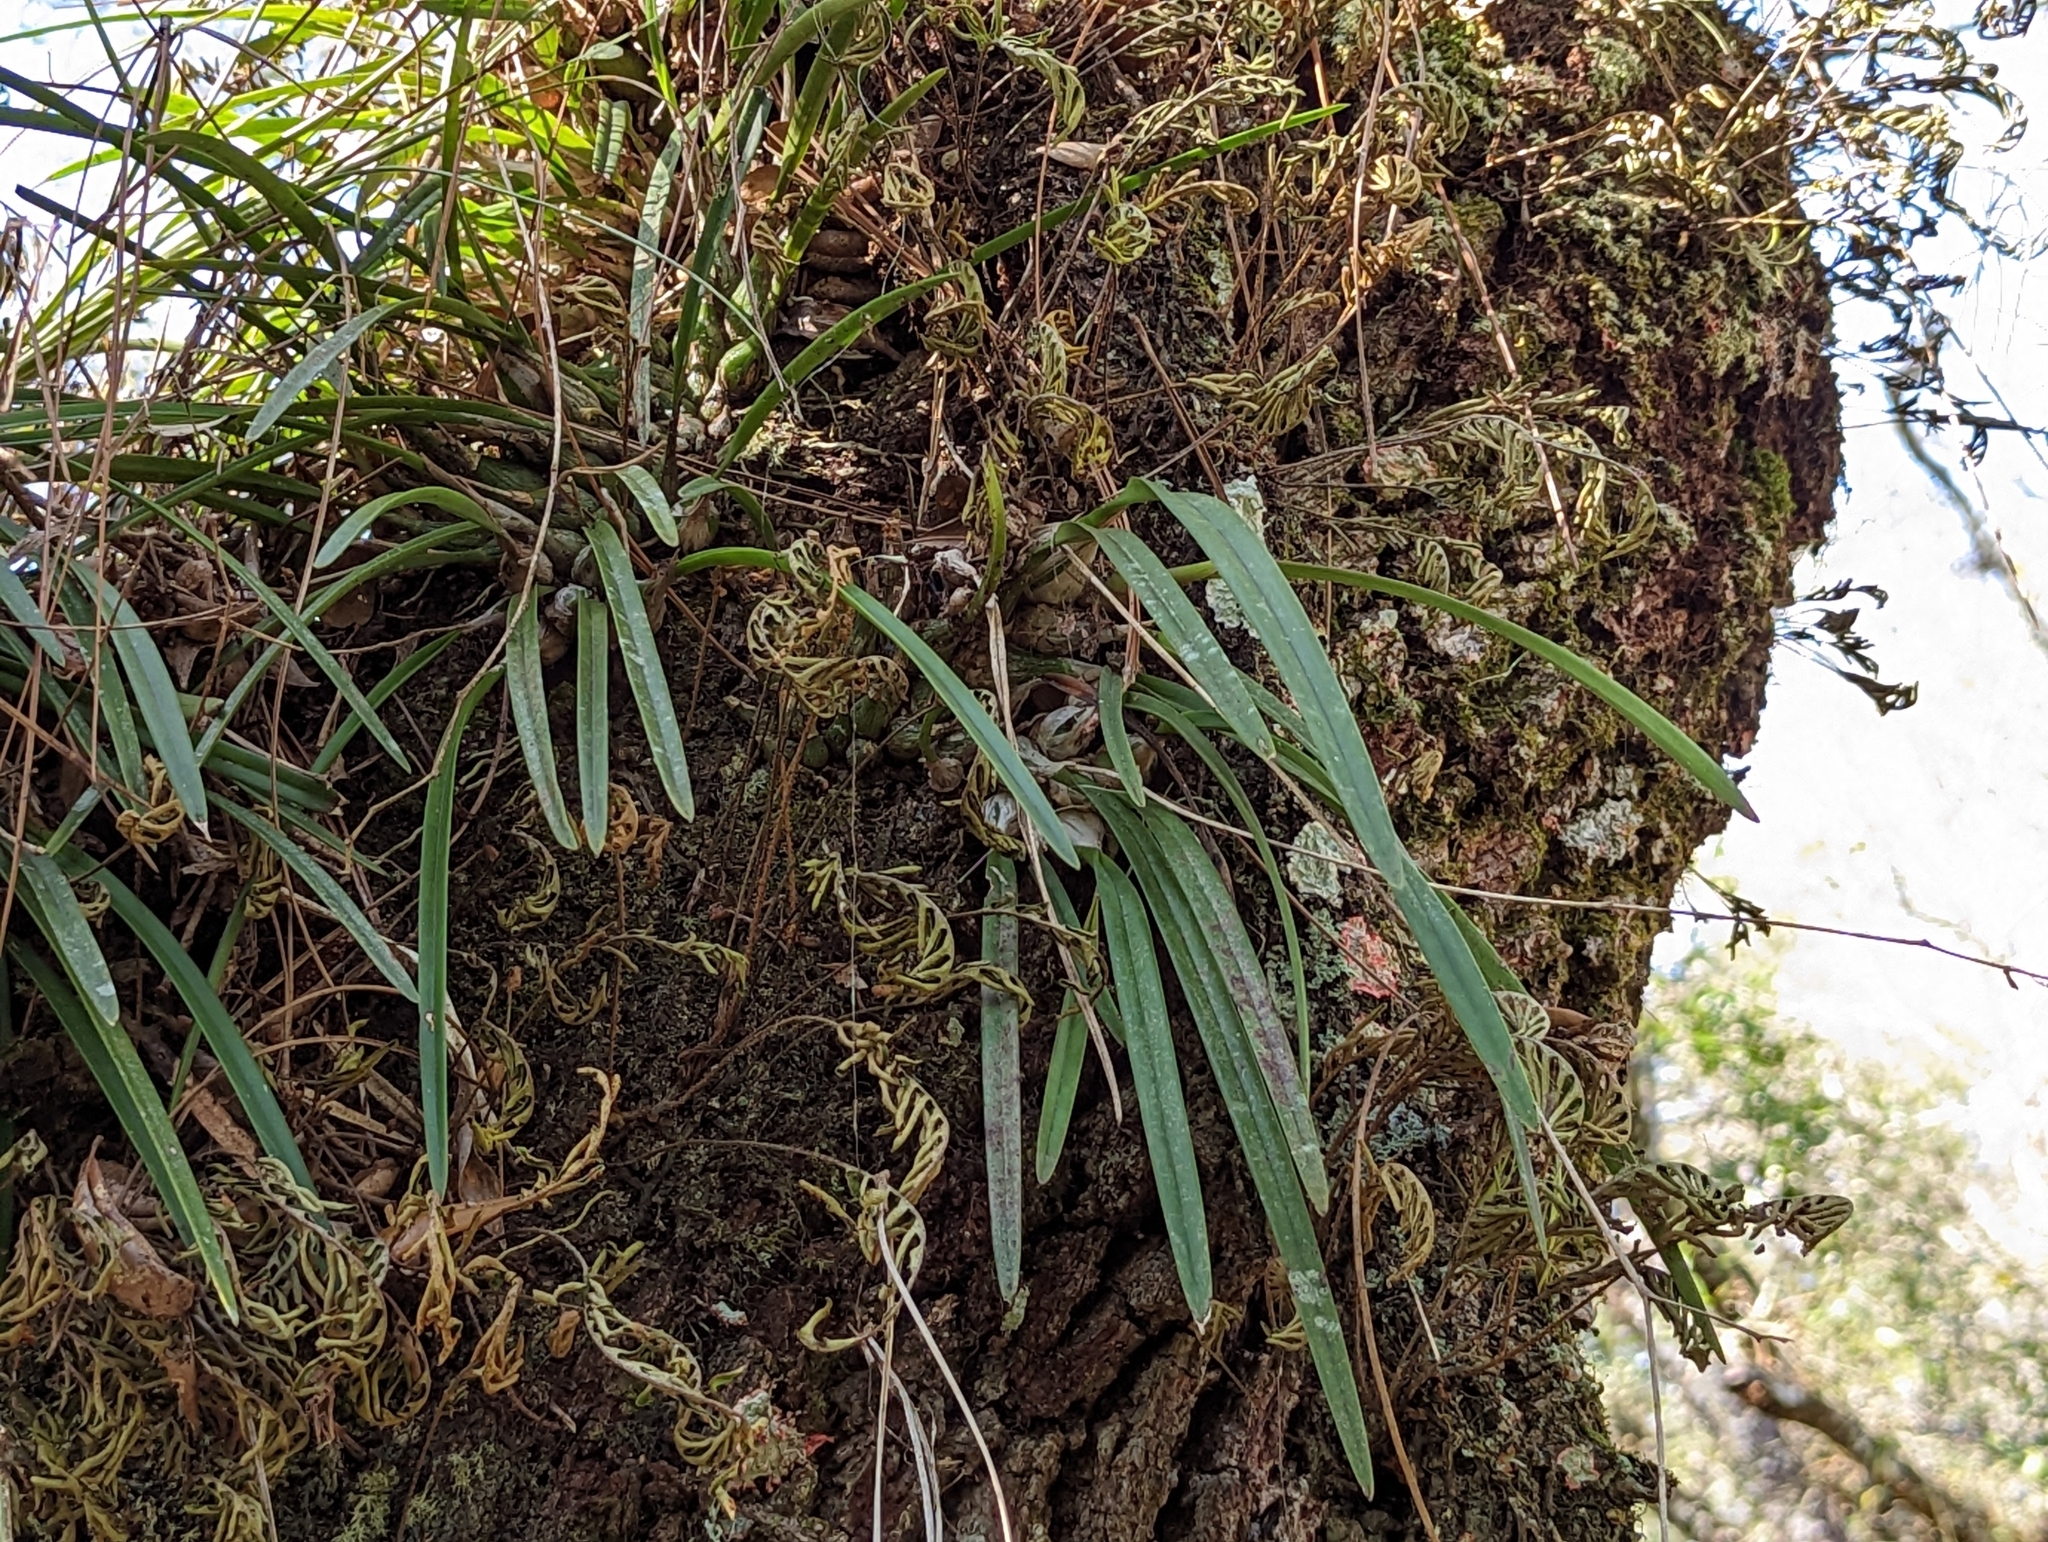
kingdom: Plantae
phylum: Tracheophyta
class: Liliopsida
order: Asparagales
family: Orchidaceae
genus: Encyclia
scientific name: Encyclia tampensis
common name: Florida butterfly orchid
